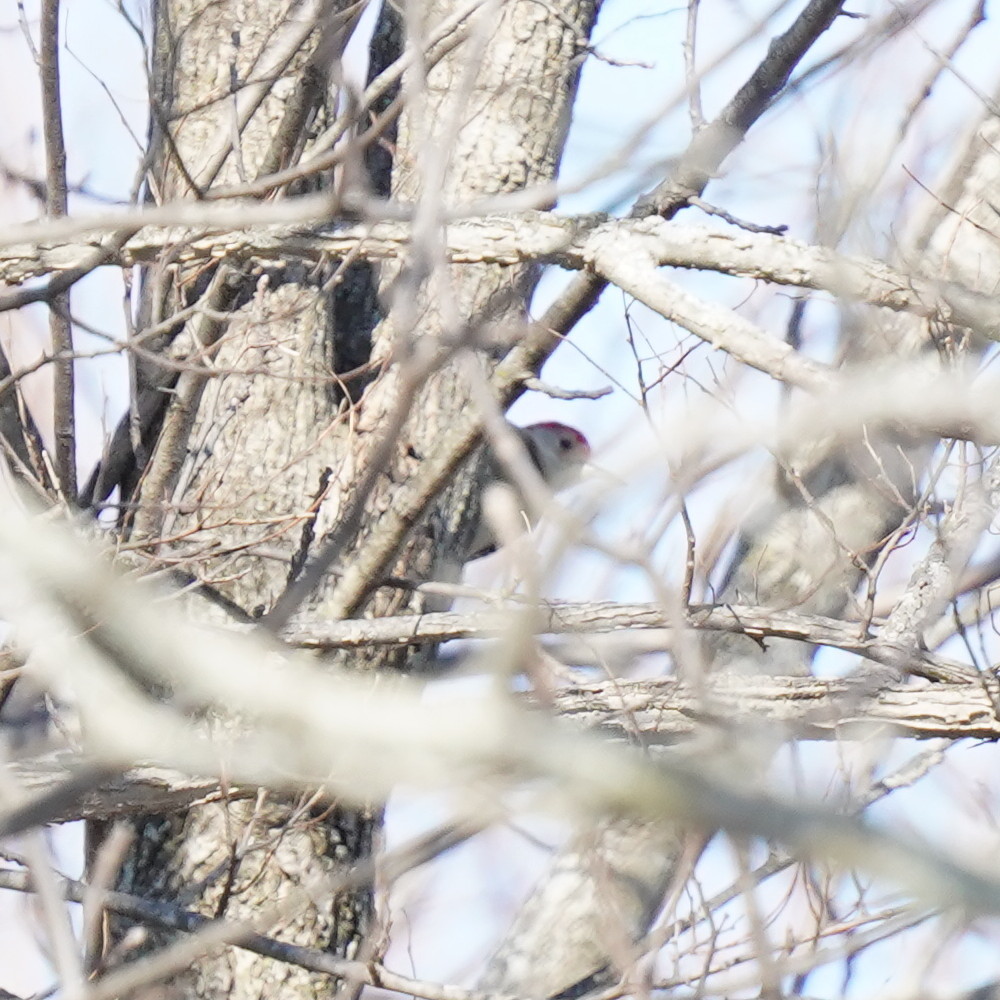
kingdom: Animalia
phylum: Chordata
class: Aves
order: Piciformes
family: Picidae
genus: Melanerpes
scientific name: Melanerpes carolinus
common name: Red-bellied woodpecker
